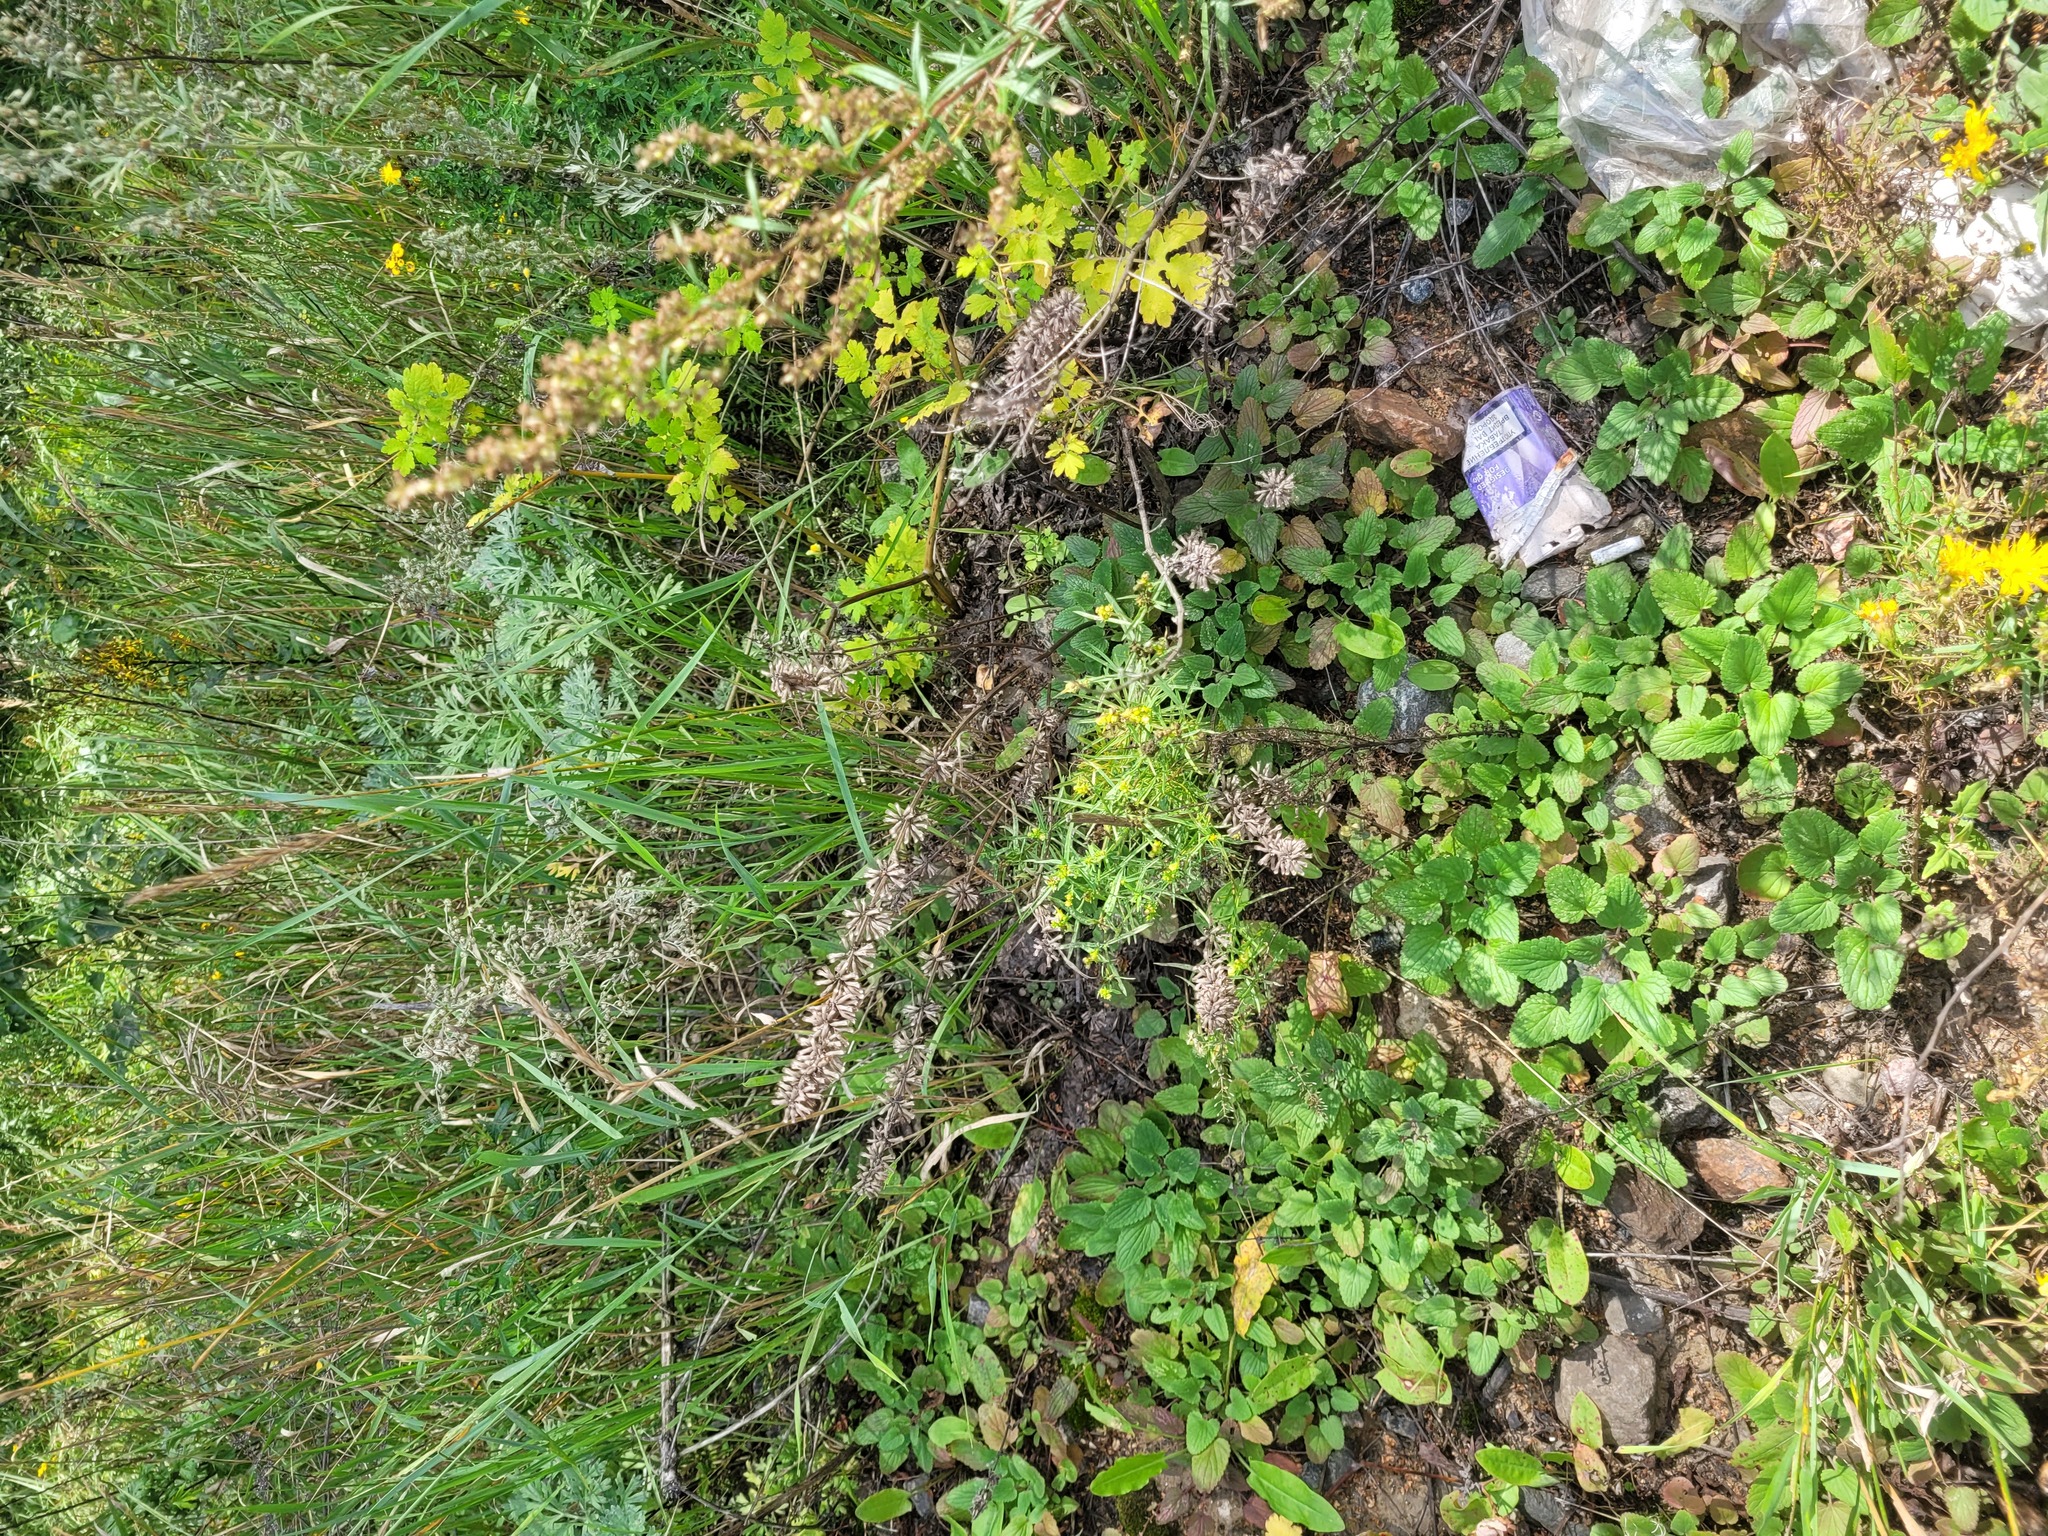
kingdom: Plantae
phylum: Tracheophyta
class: Magnoliopsida
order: Lamiales
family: Lamiaceae
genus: Dracocephalum
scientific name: Dracocephalum nutans
